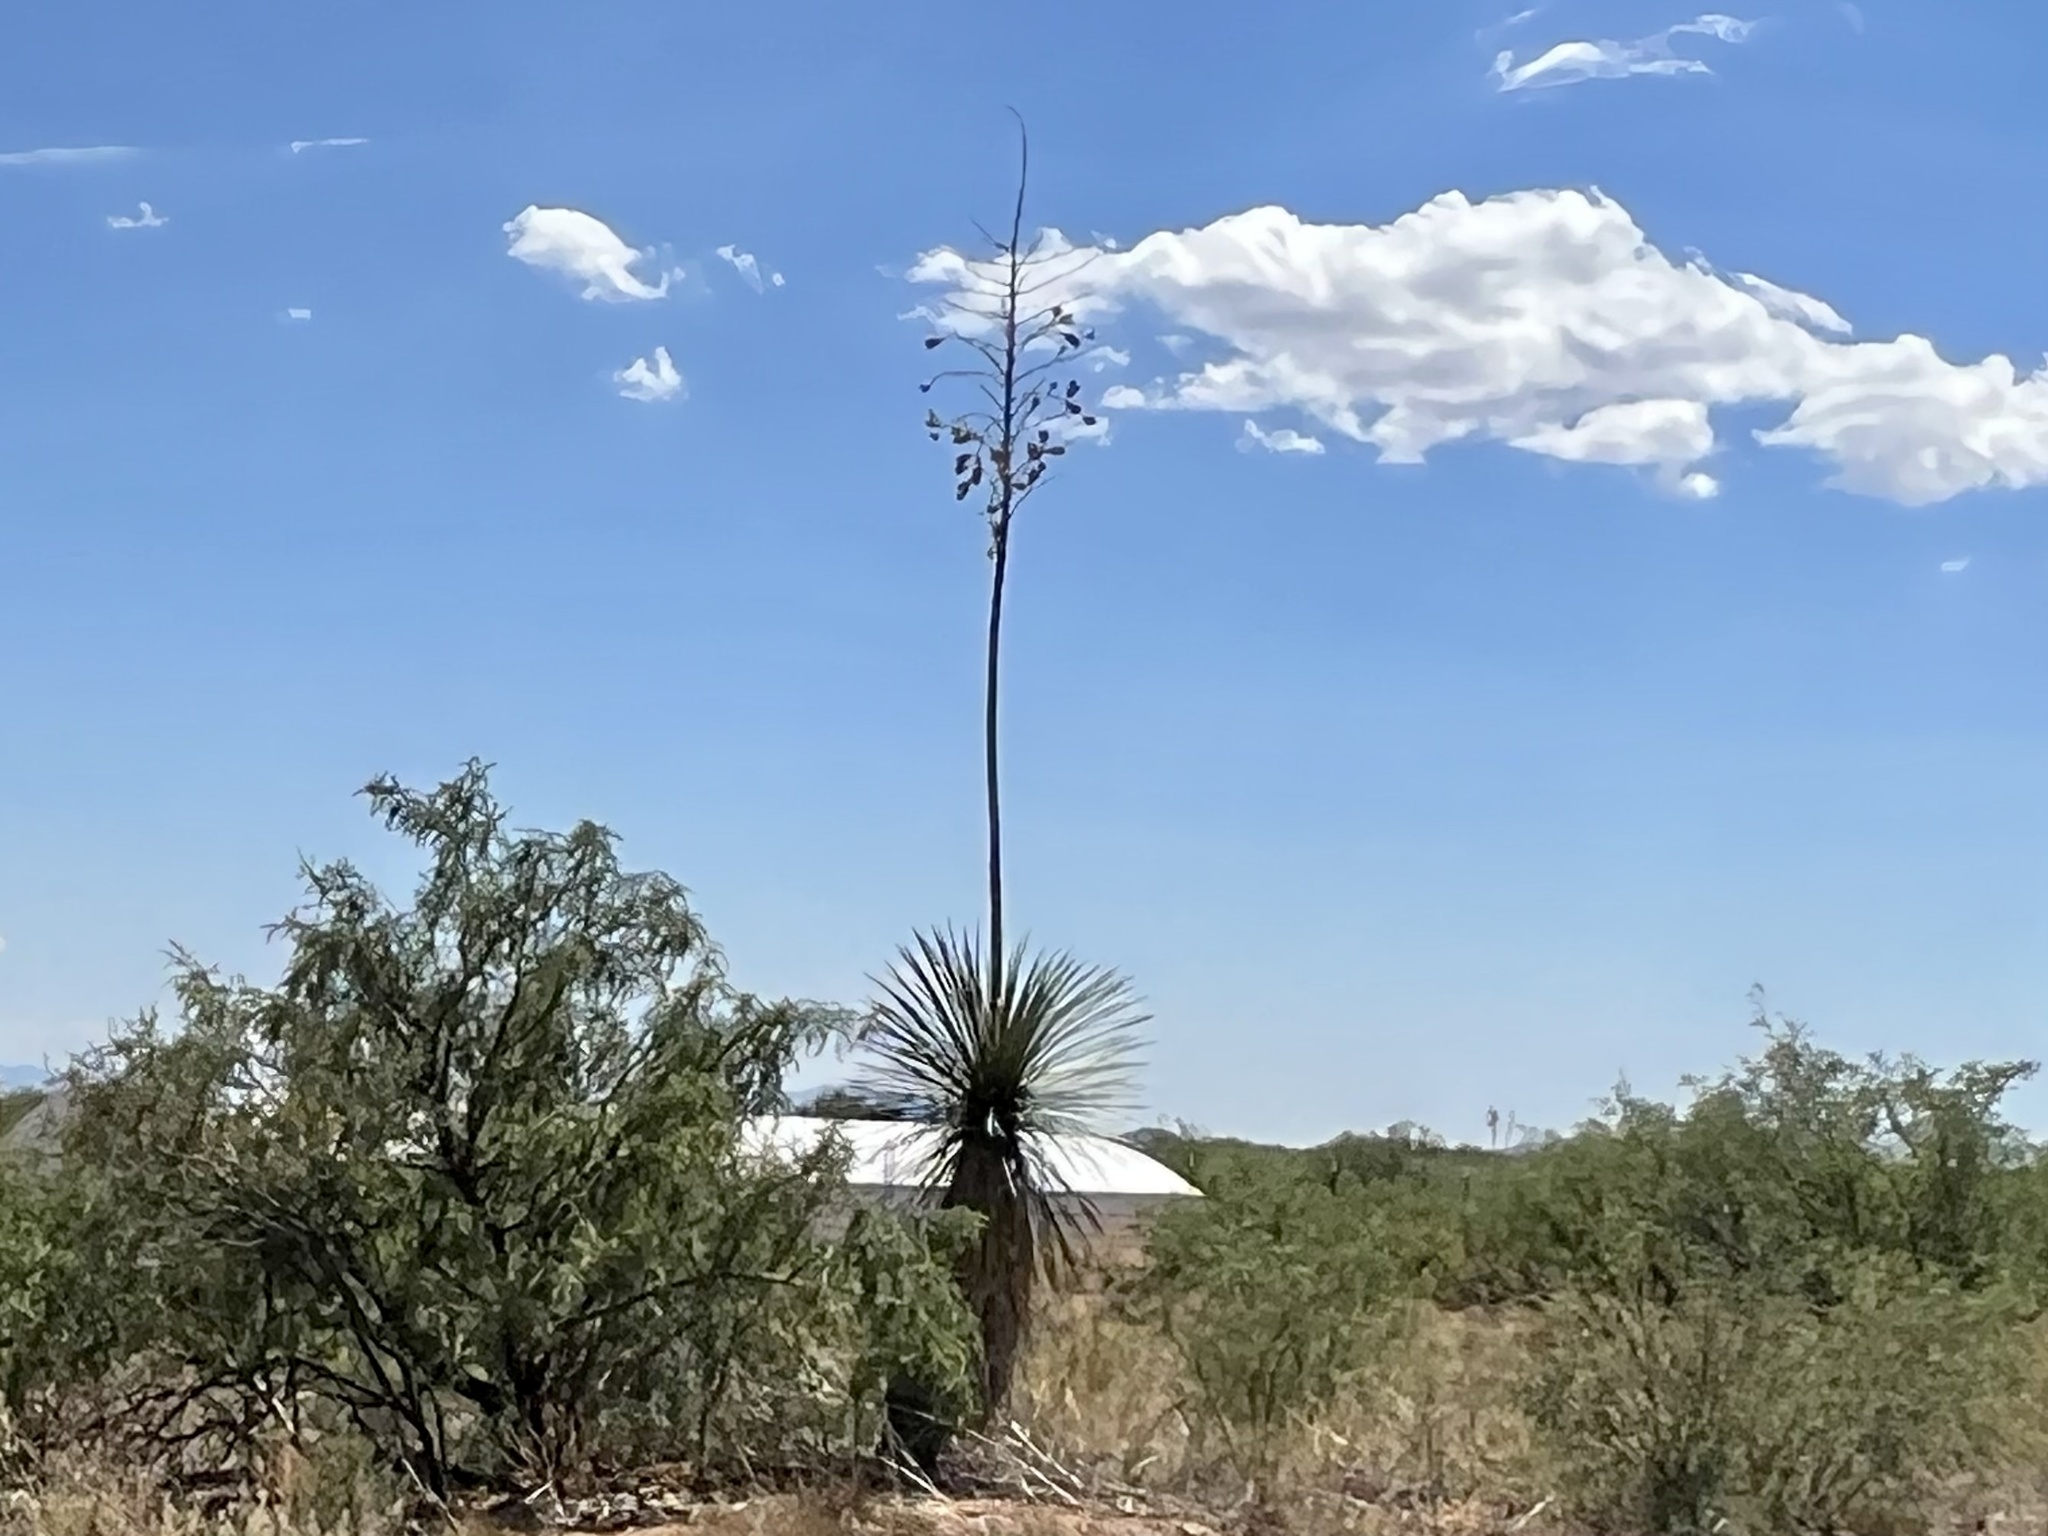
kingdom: Plantae
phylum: Tracheophyta
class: Liliopsida
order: Asparagales
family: Asparagaceae
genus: Yucca
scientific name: Yucca elata
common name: Palmella
